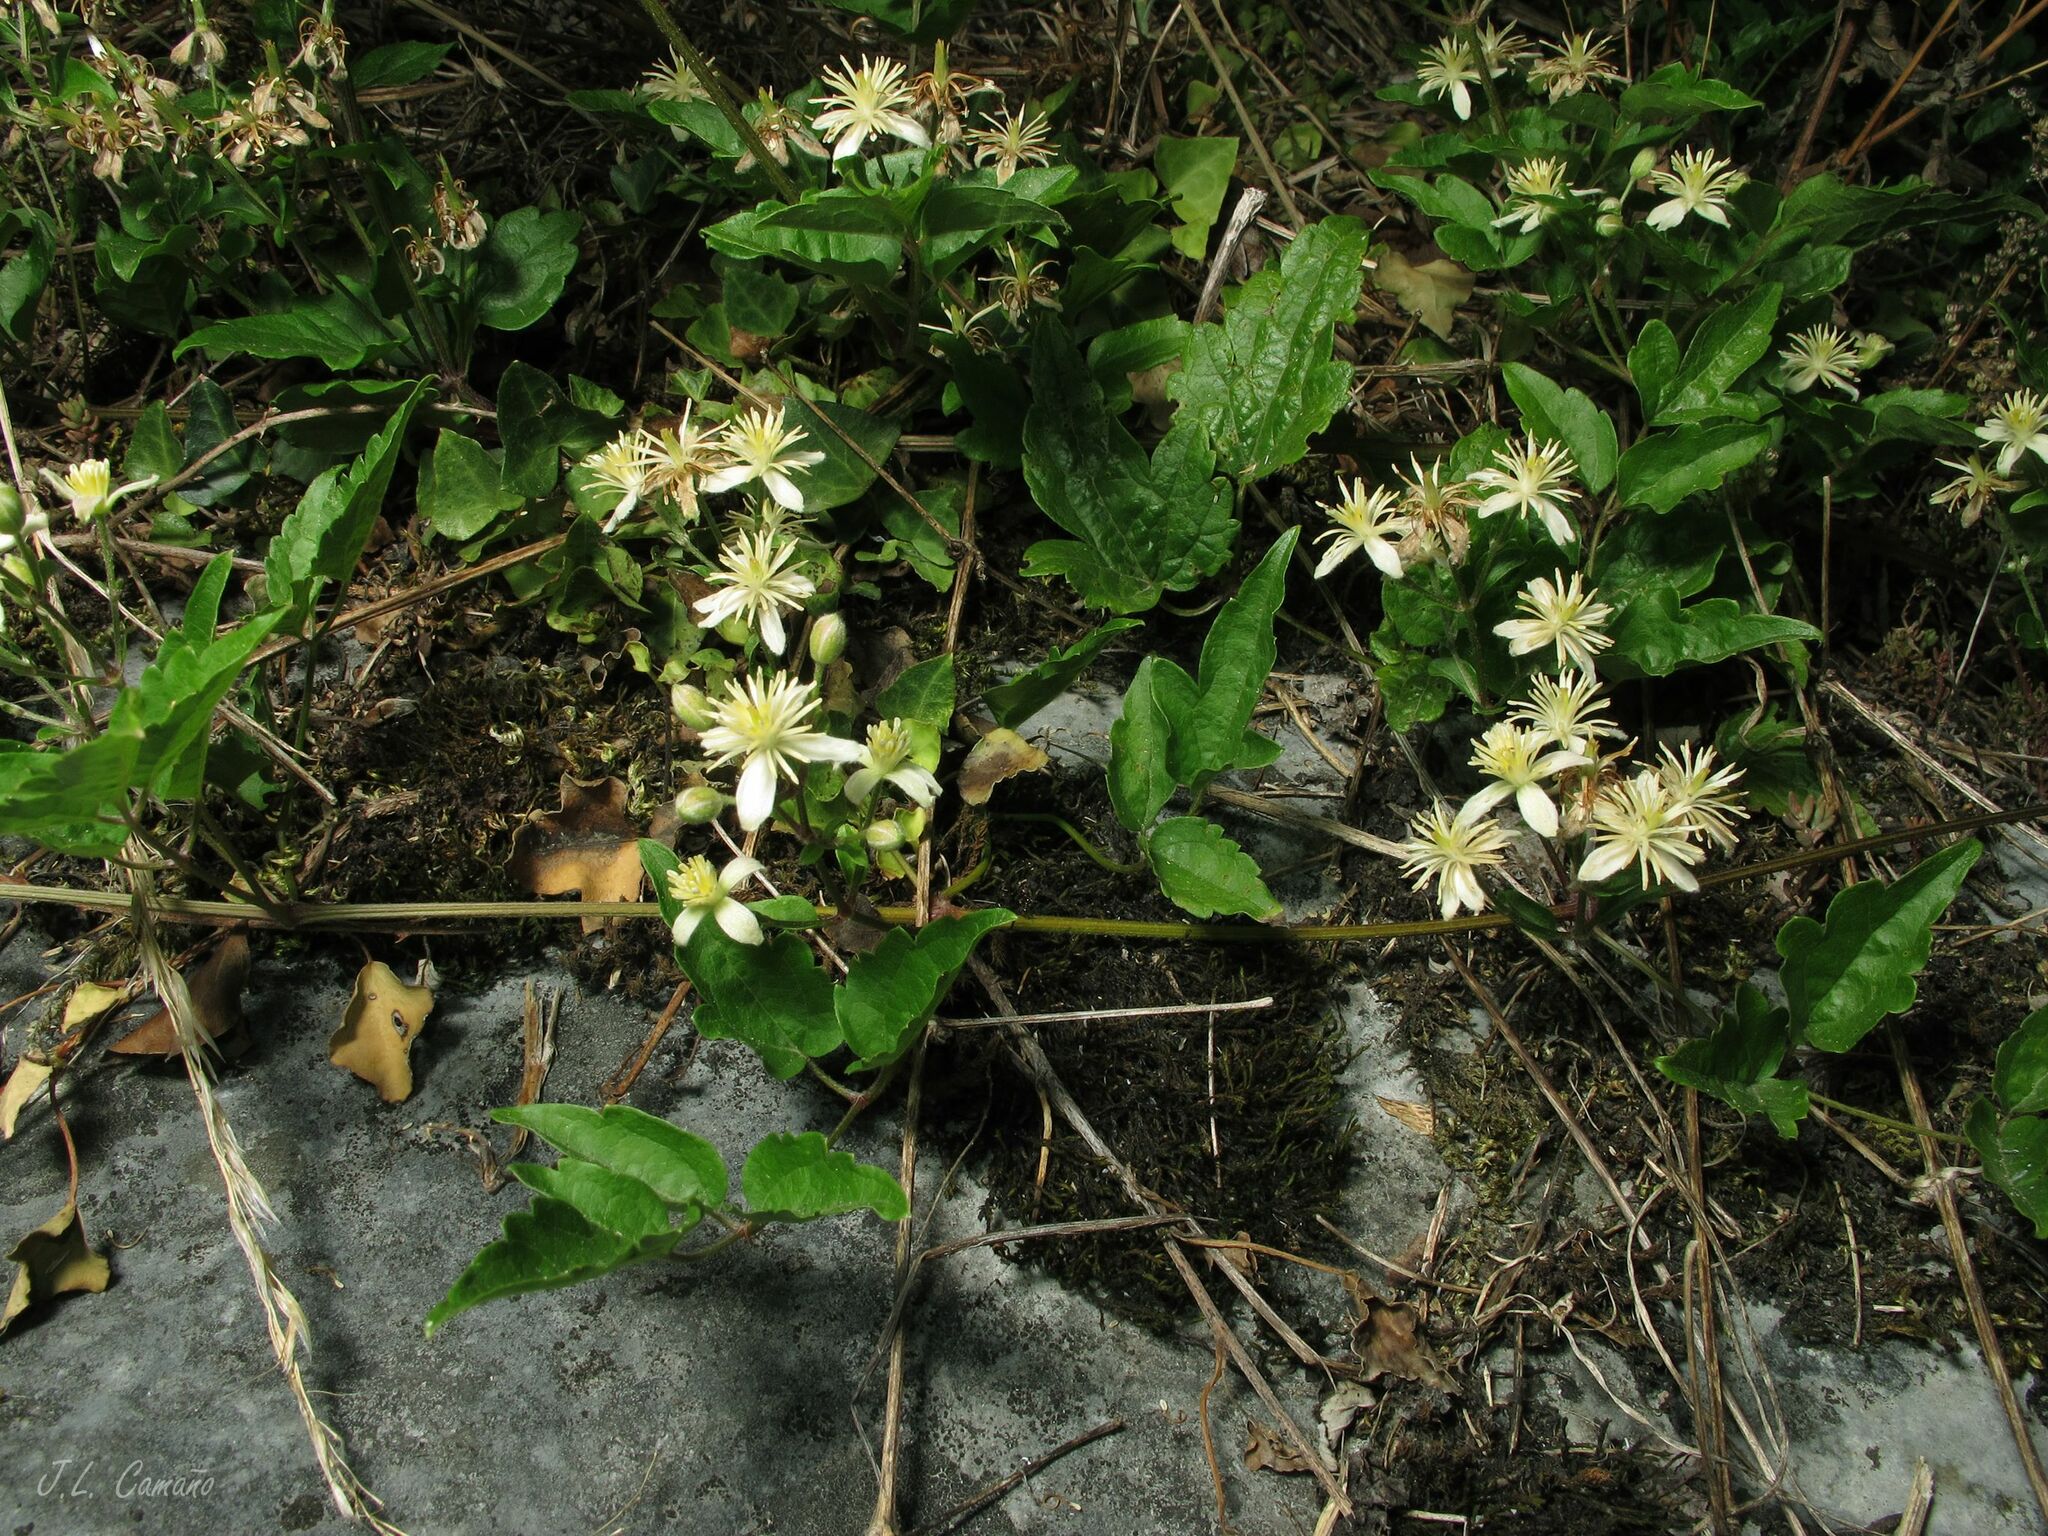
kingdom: Plantae
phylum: Tracheophyta
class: Magnoliopsida
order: Ranunculales
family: Ranunculaceae
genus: Clematis
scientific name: Clematis vitalba
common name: Evergreen clematis
